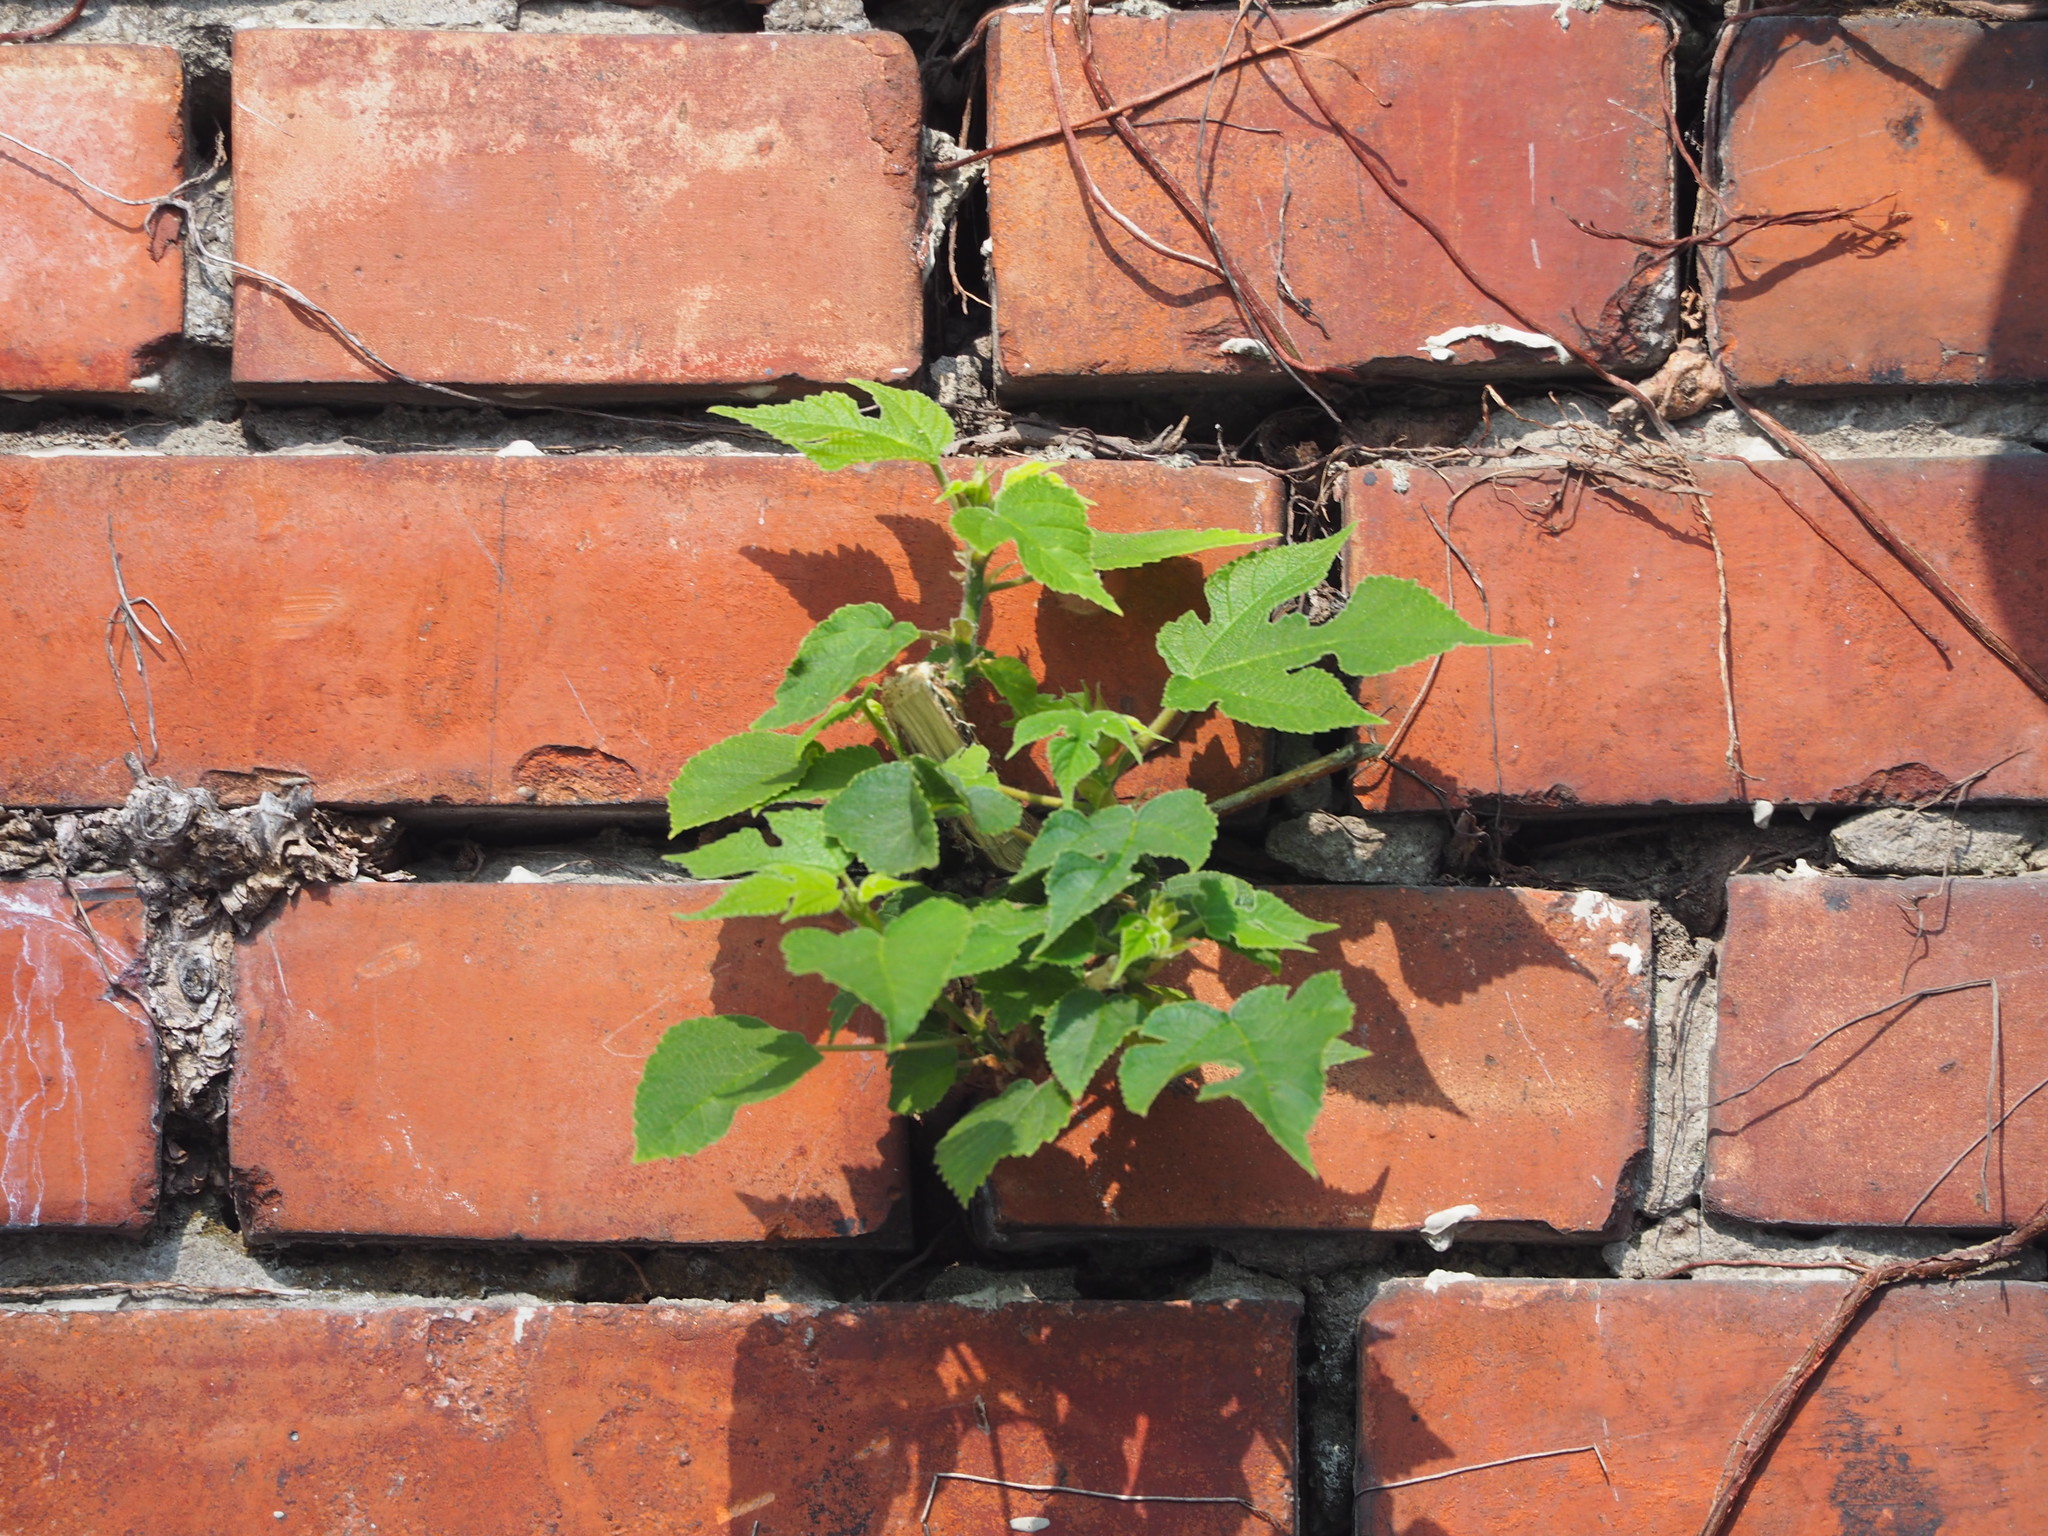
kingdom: Plantae
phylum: Tracheophyta
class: Magnoliopsida
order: Rosales
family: Moraceae
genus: Broussonetia
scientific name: Broussonetia papyrifera
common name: Paper mulberry
